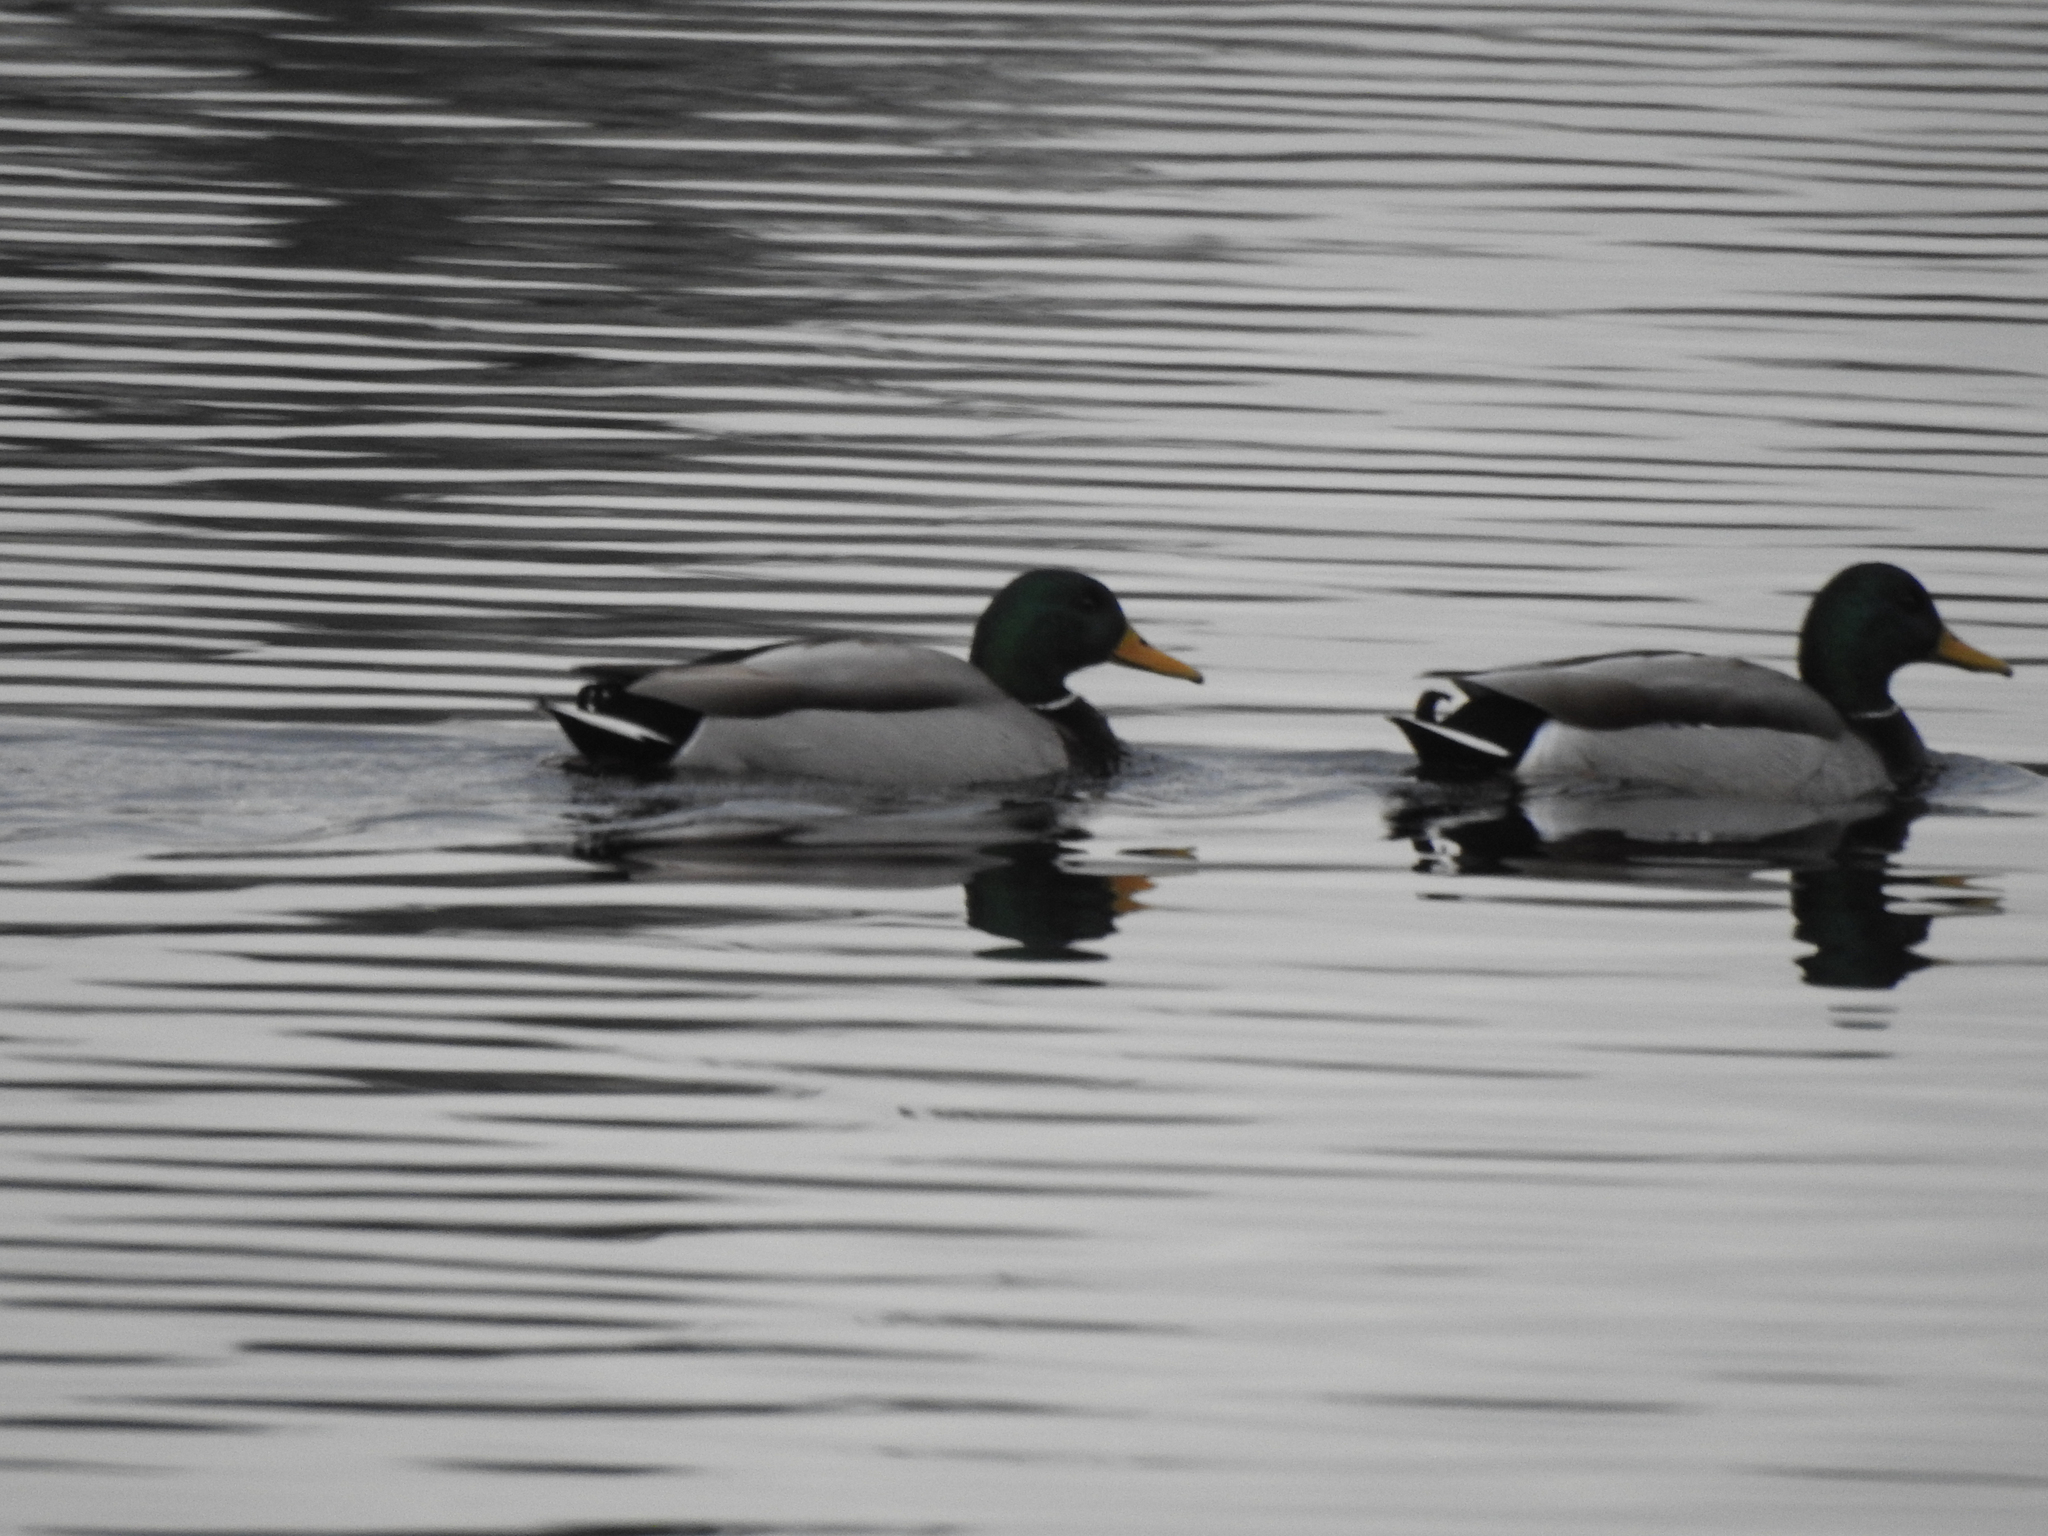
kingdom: Animalia
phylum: Chordata
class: Aves
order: Anseriformes
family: Anatidae
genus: Anas
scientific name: Anas platyrhynchos
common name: Mallard
